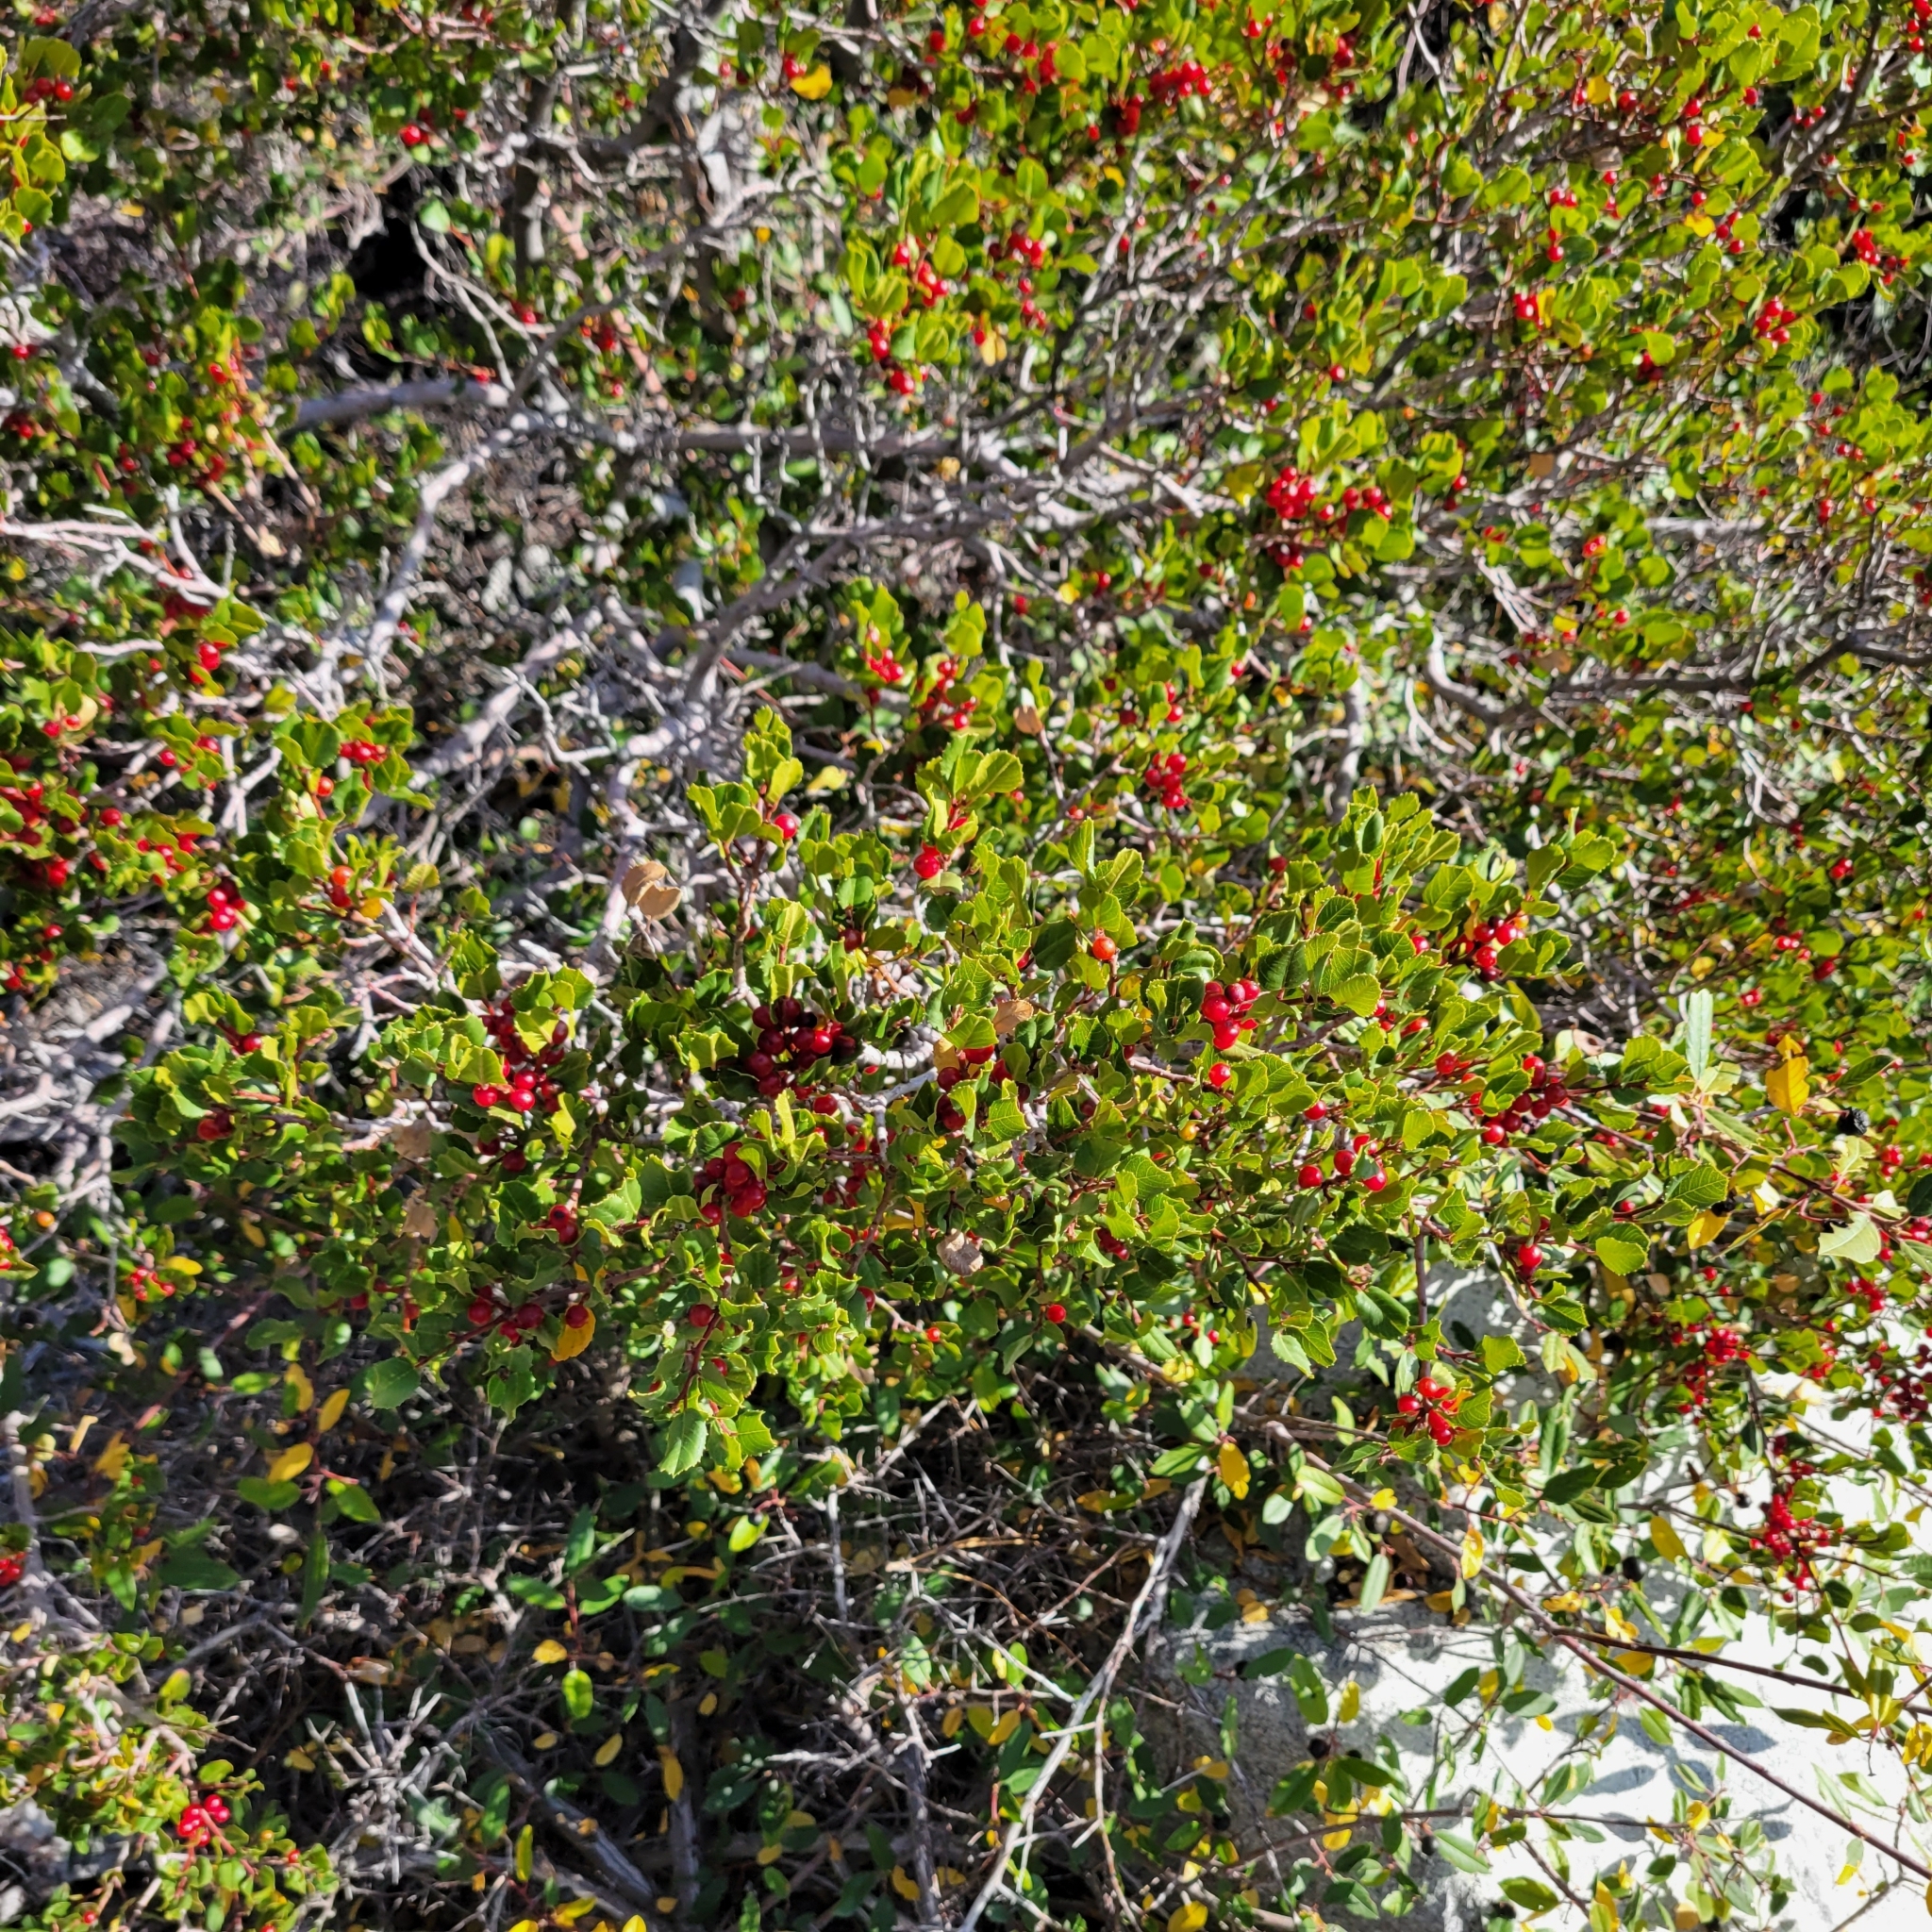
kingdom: Plantae
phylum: Tracheophyta
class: Magnoliopsida
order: Rosales
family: Rhamnaceae
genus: Endotropis
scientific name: Endotropis crocea
